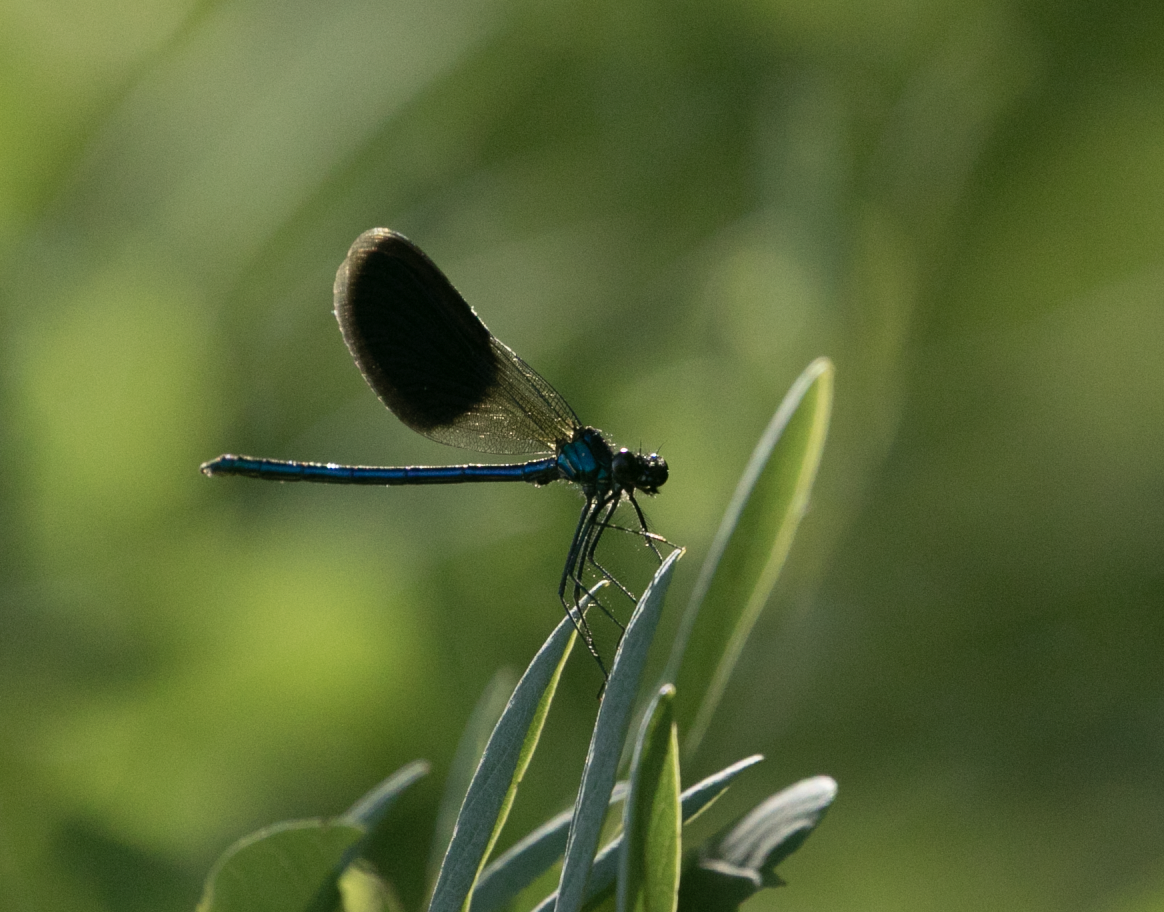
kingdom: Animalia
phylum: Arthropoda
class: Insecta
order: Odonata
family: Calopterygidae
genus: Calopteryx
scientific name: Calopteryx splendens
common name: Banded demoiselle
